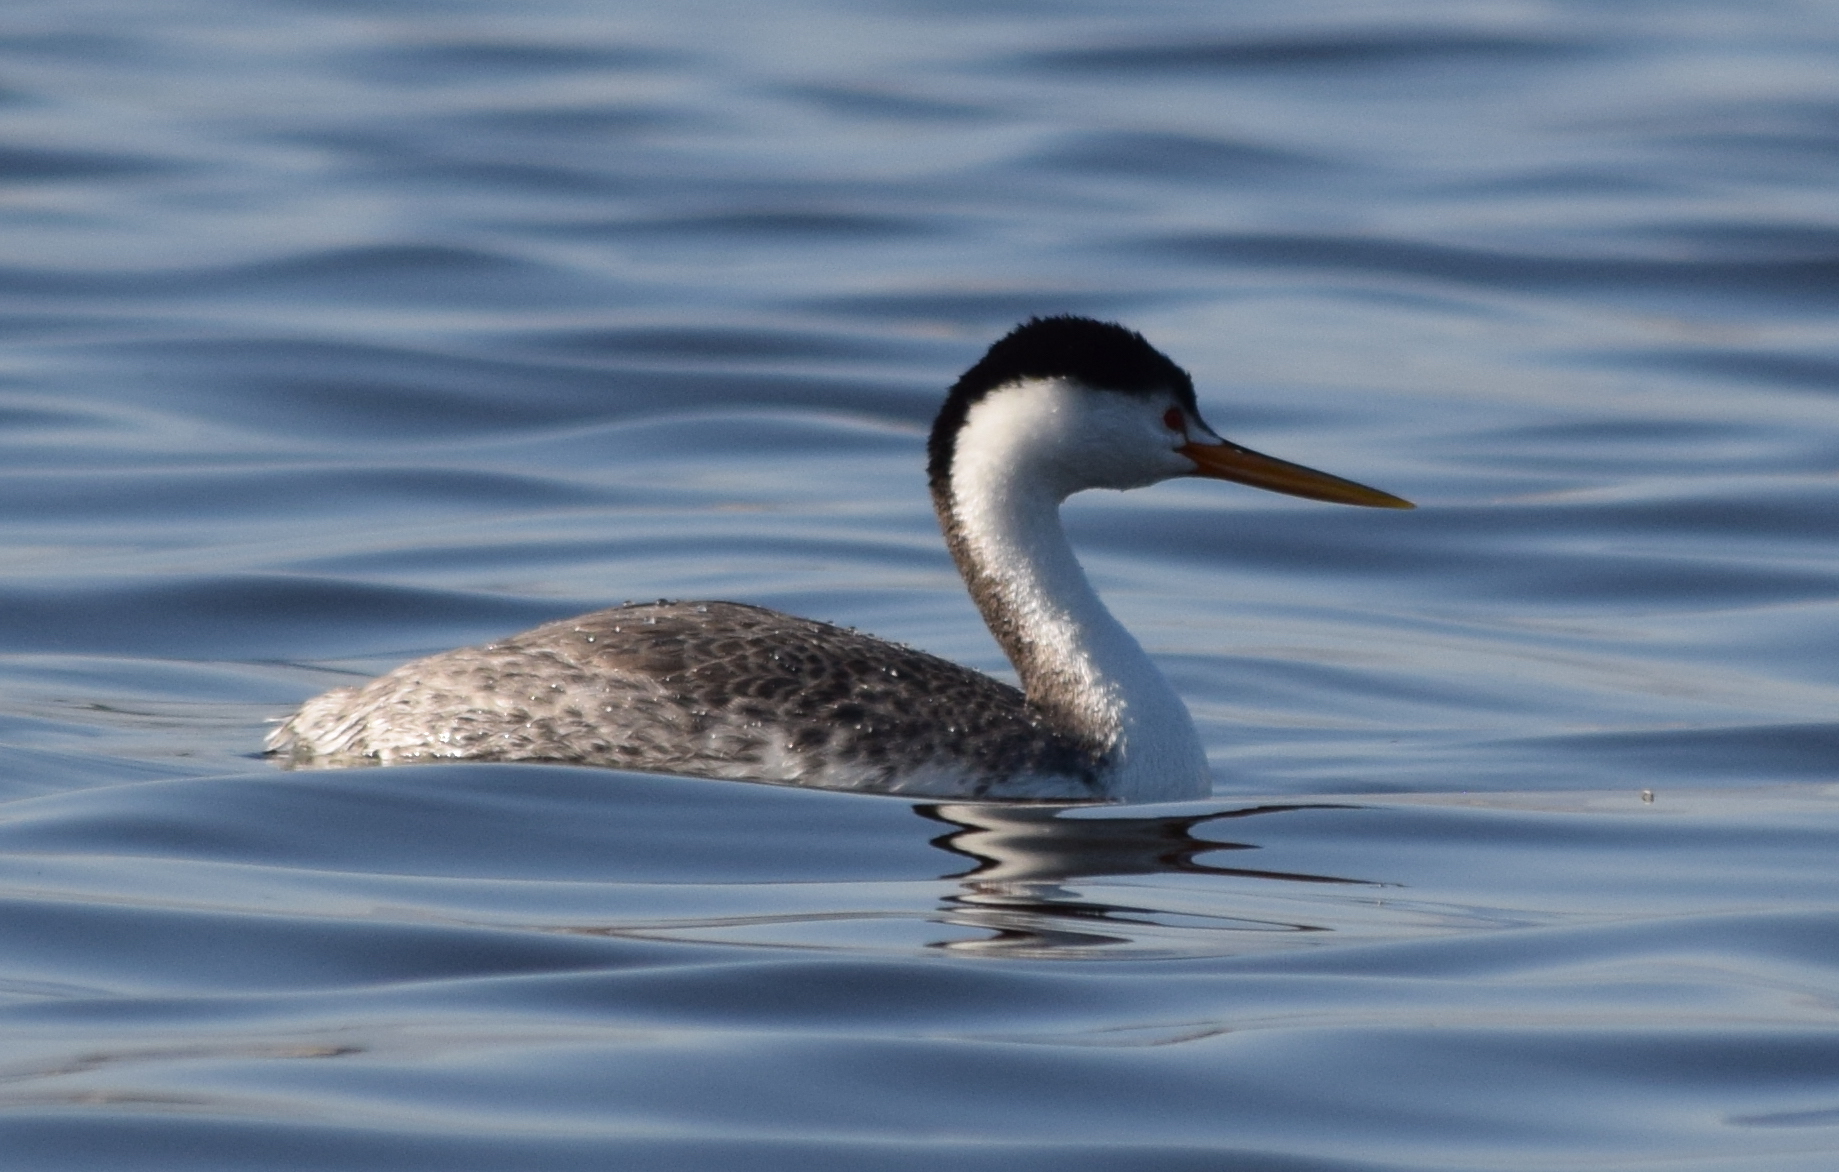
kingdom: Animalia
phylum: Chordata
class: Aves
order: Podicipediformes
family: Podicipedidae
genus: Aechmophorus
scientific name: Aechmophorus clarkii
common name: Clark's grebe
